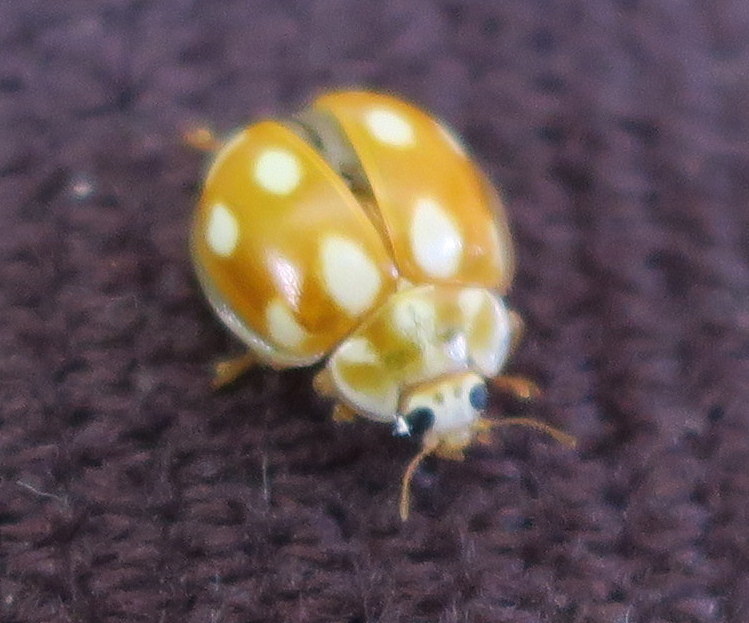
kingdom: Animalia
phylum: Arthropoda
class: Insecta
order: Coleoptera
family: Coccinellidae
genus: Calvia
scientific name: Calvia decemguttata
